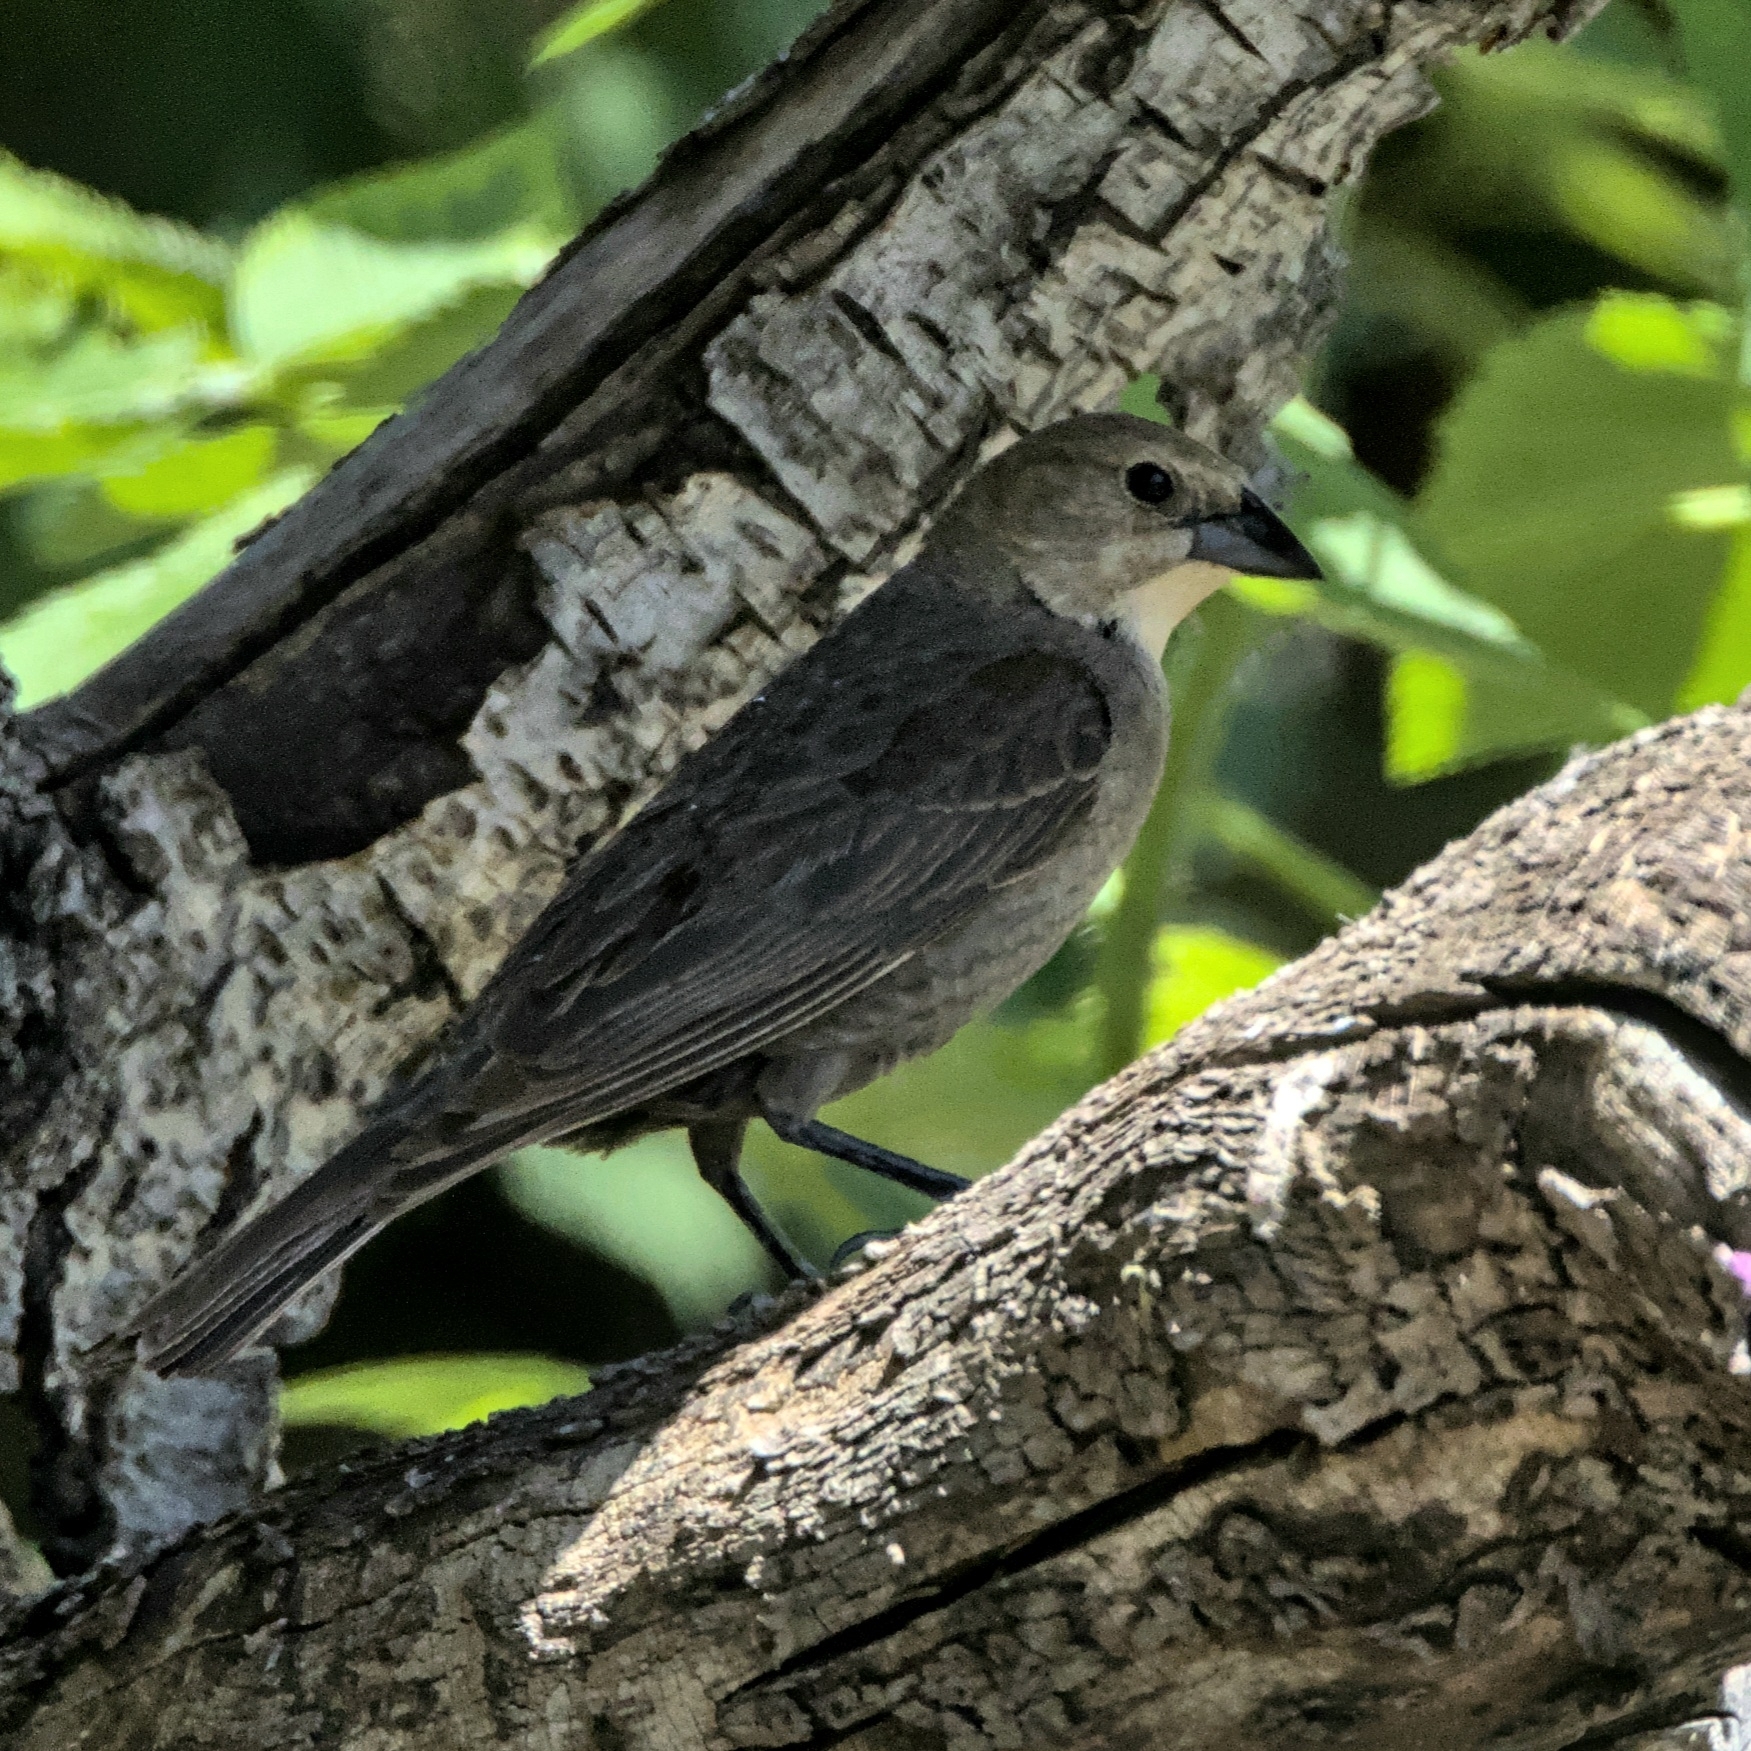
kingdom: Animalia
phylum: Chordata
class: Aves
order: Passeriformes
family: Icteridae
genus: Molothrus
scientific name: Molothrus ater
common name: Brown-headed cowbird
